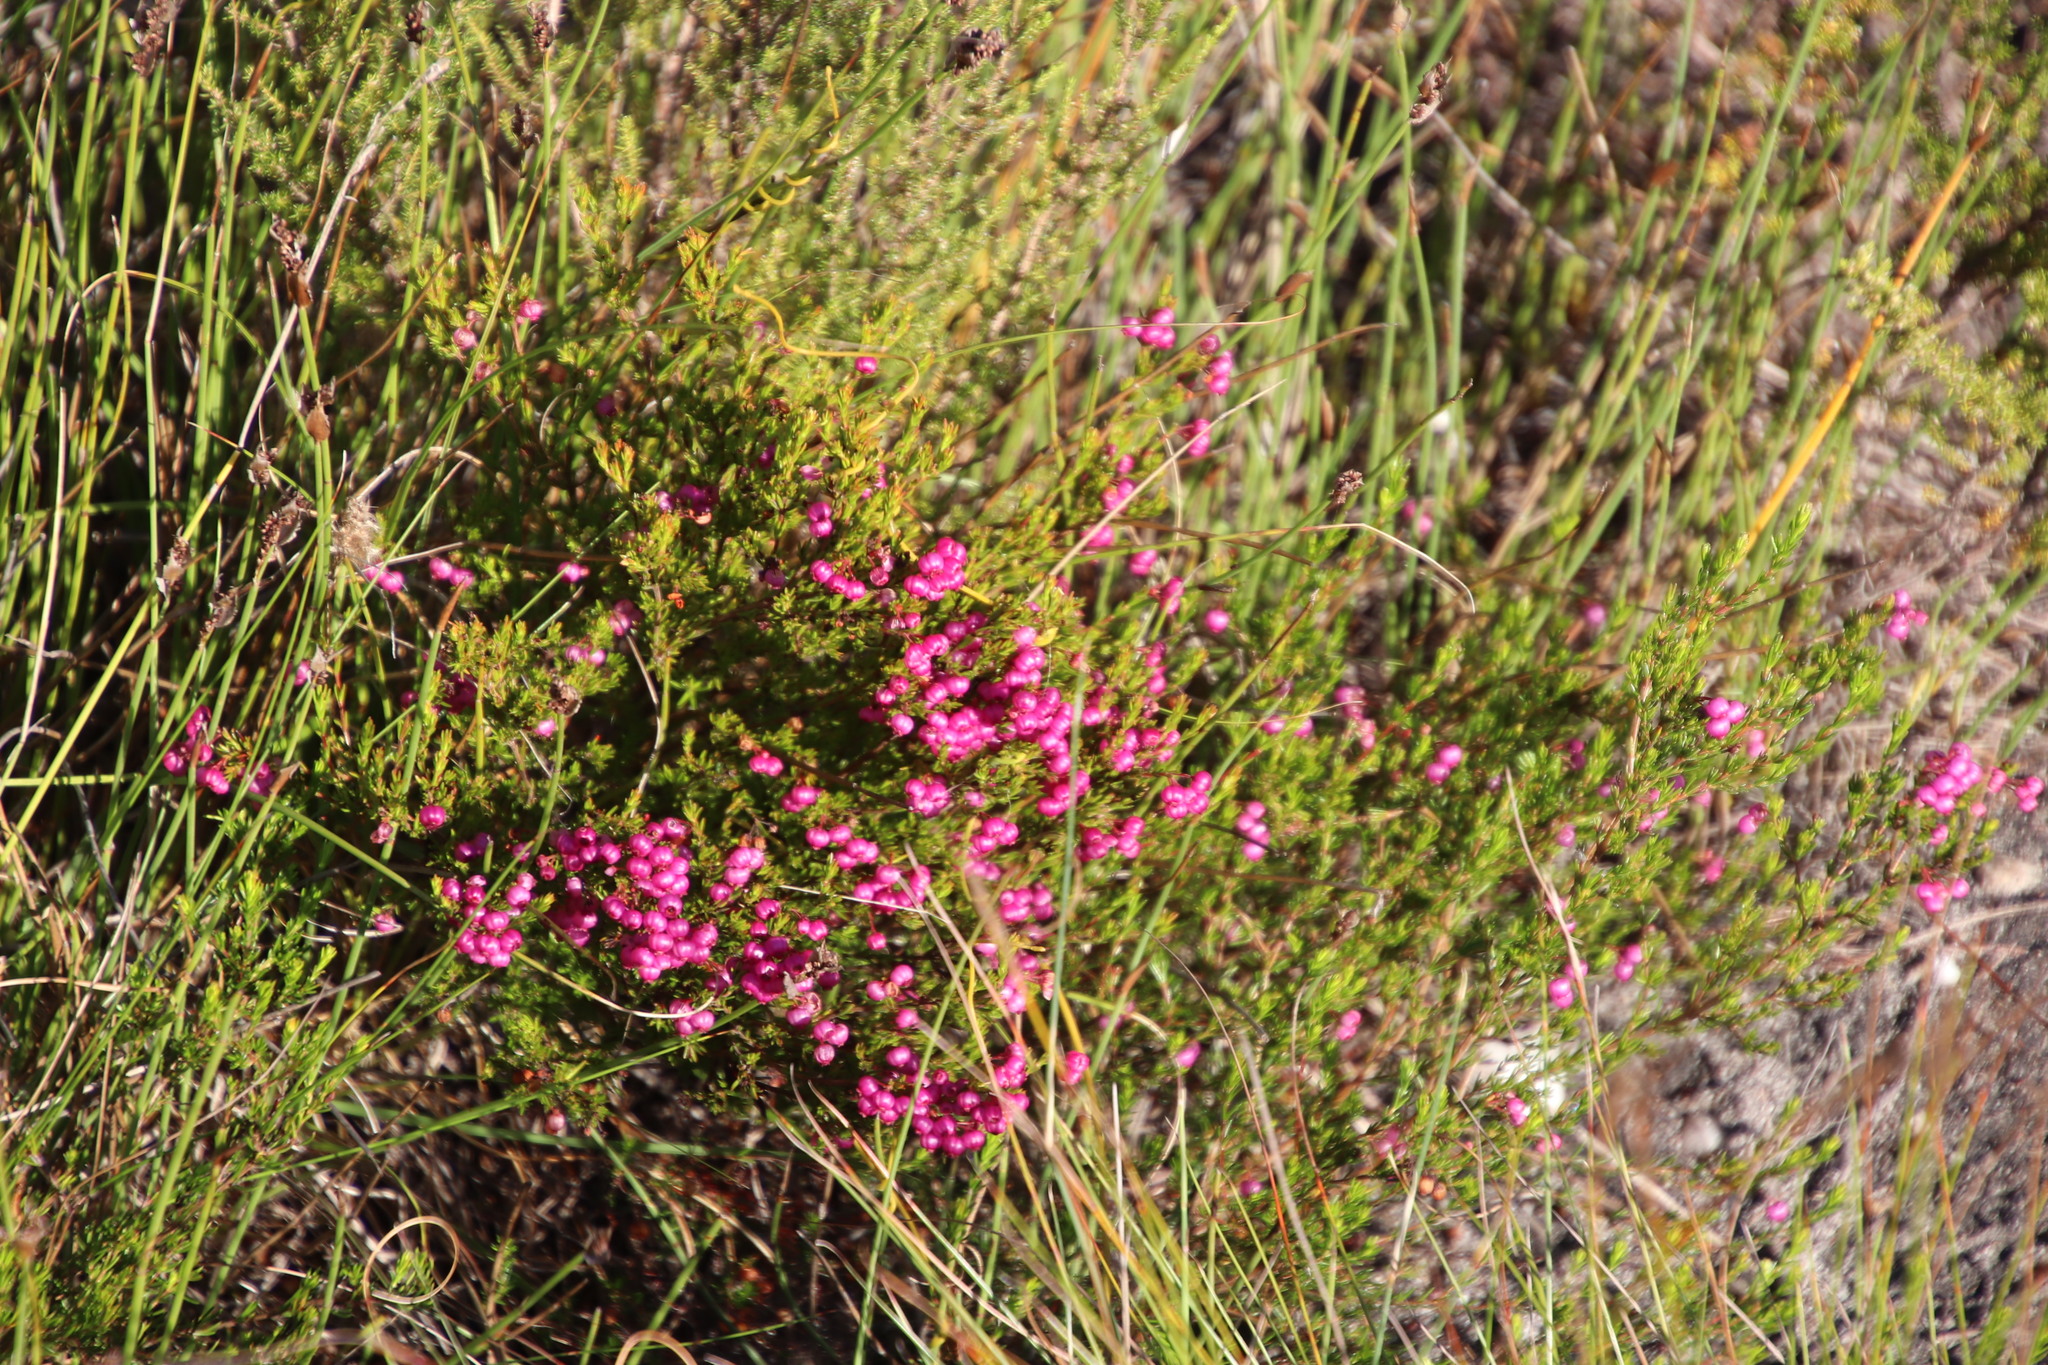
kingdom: Plantae
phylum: Tracheophyta
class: Magnoliopsida
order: Ericales
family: Ericaceae
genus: Erica
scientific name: Erica multumbellifera
